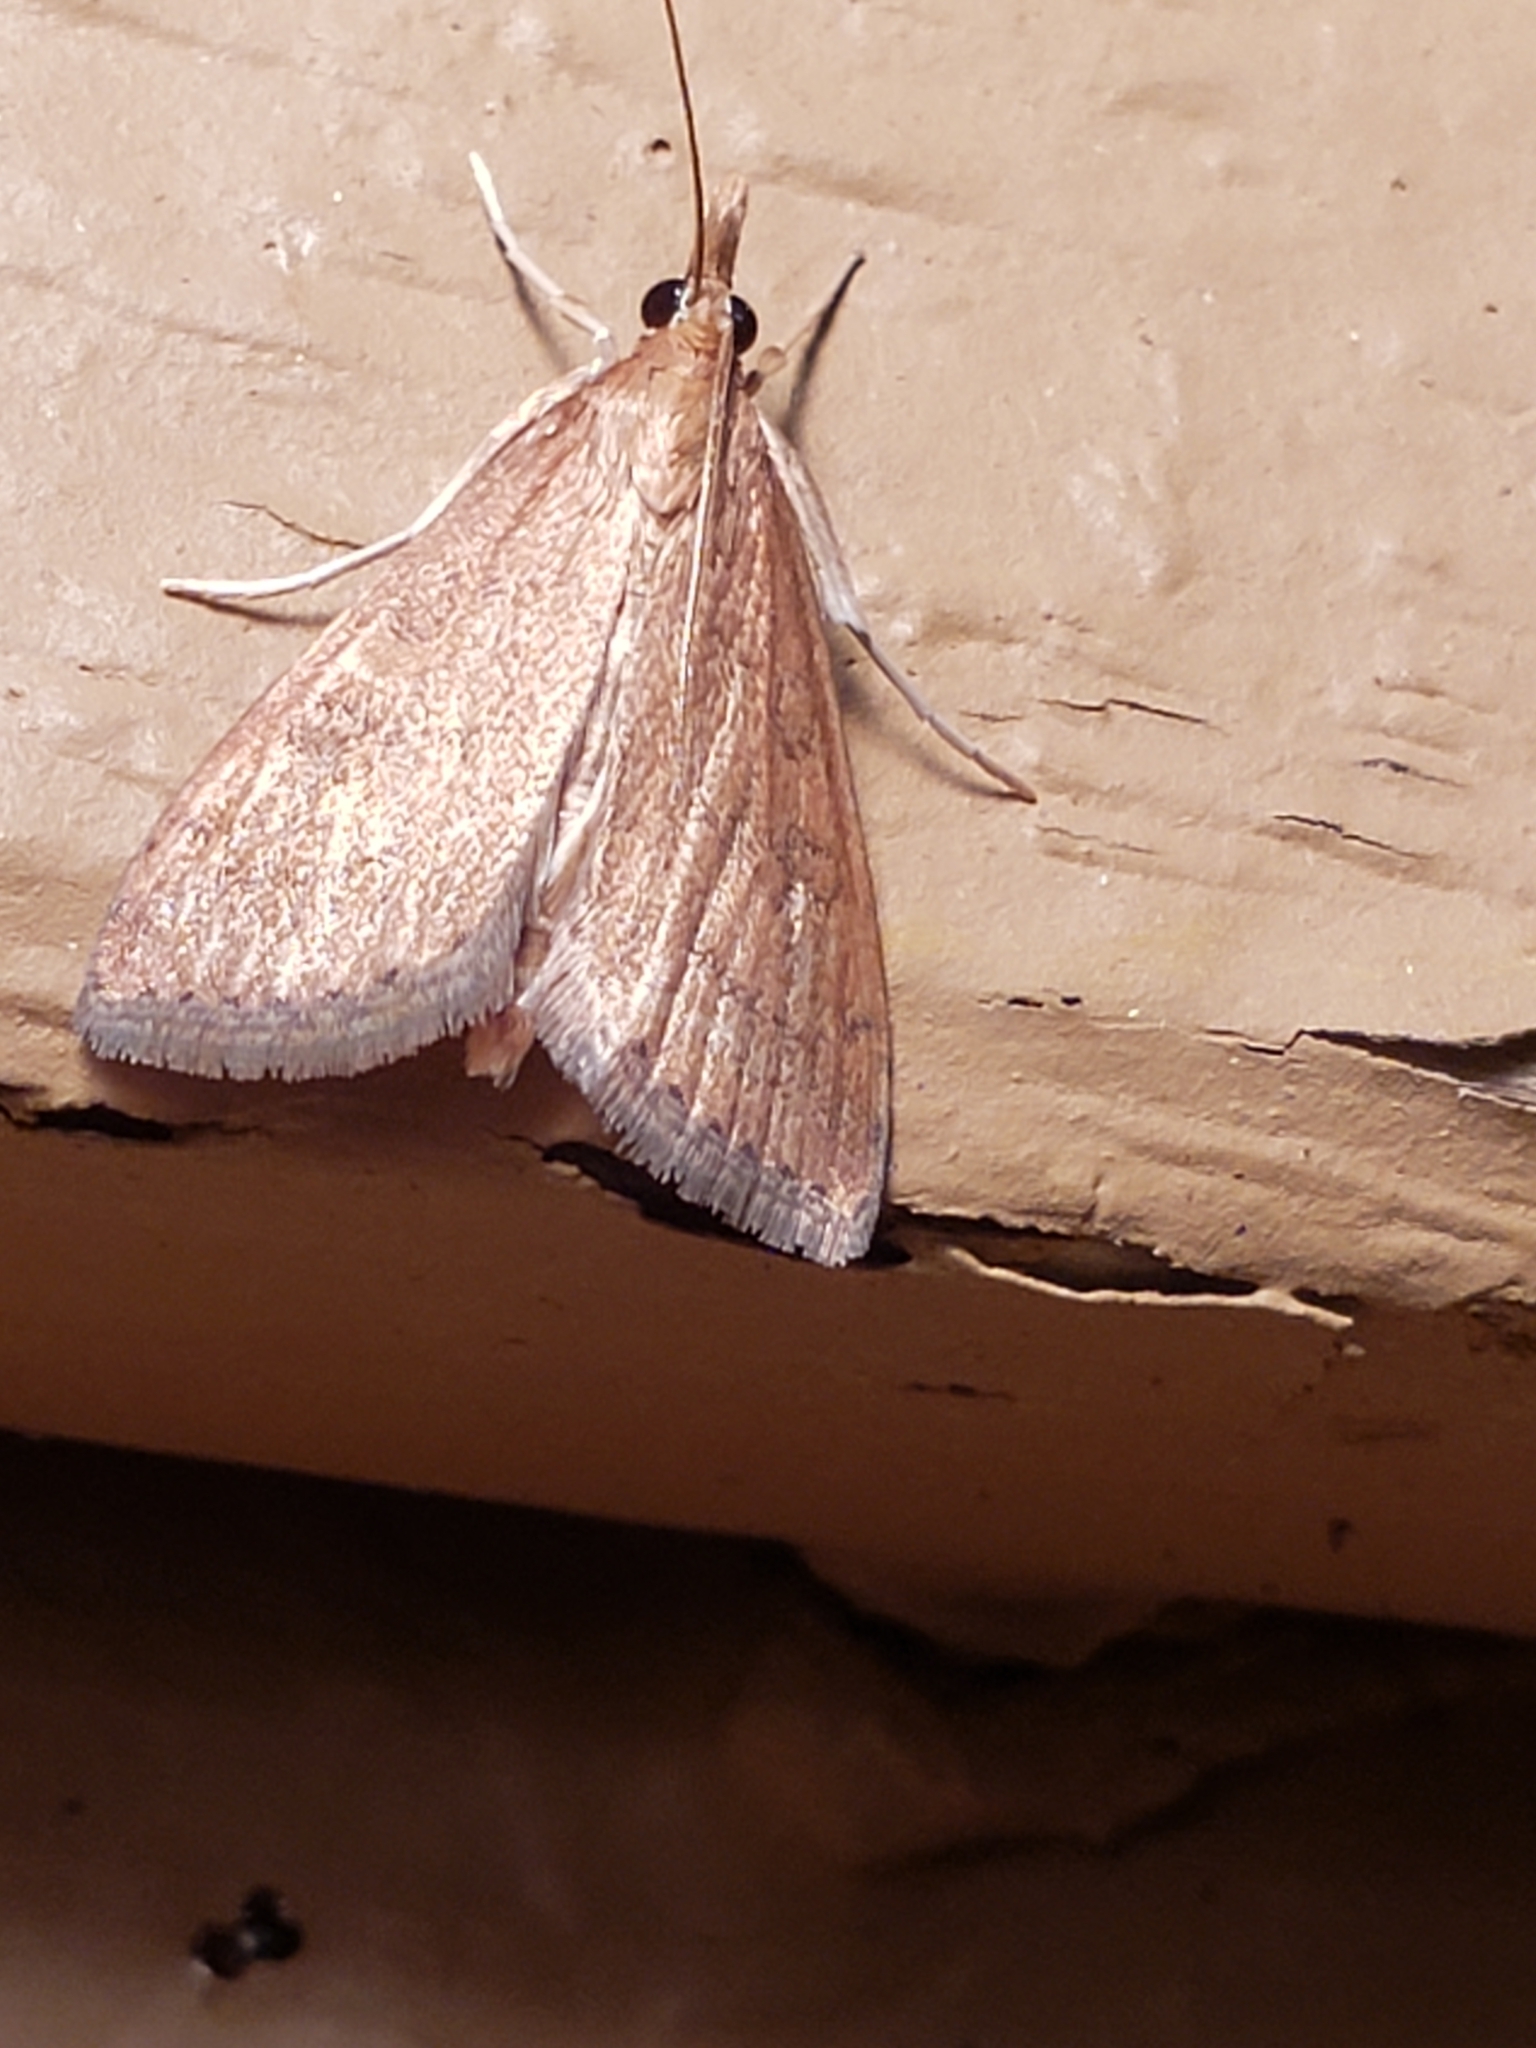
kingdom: Animalia
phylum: Arthropoda
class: Insecta
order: Lepidoptera
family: Crambidae
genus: Udea
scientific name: Udea rubigalis
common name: Celery leaftier moth
